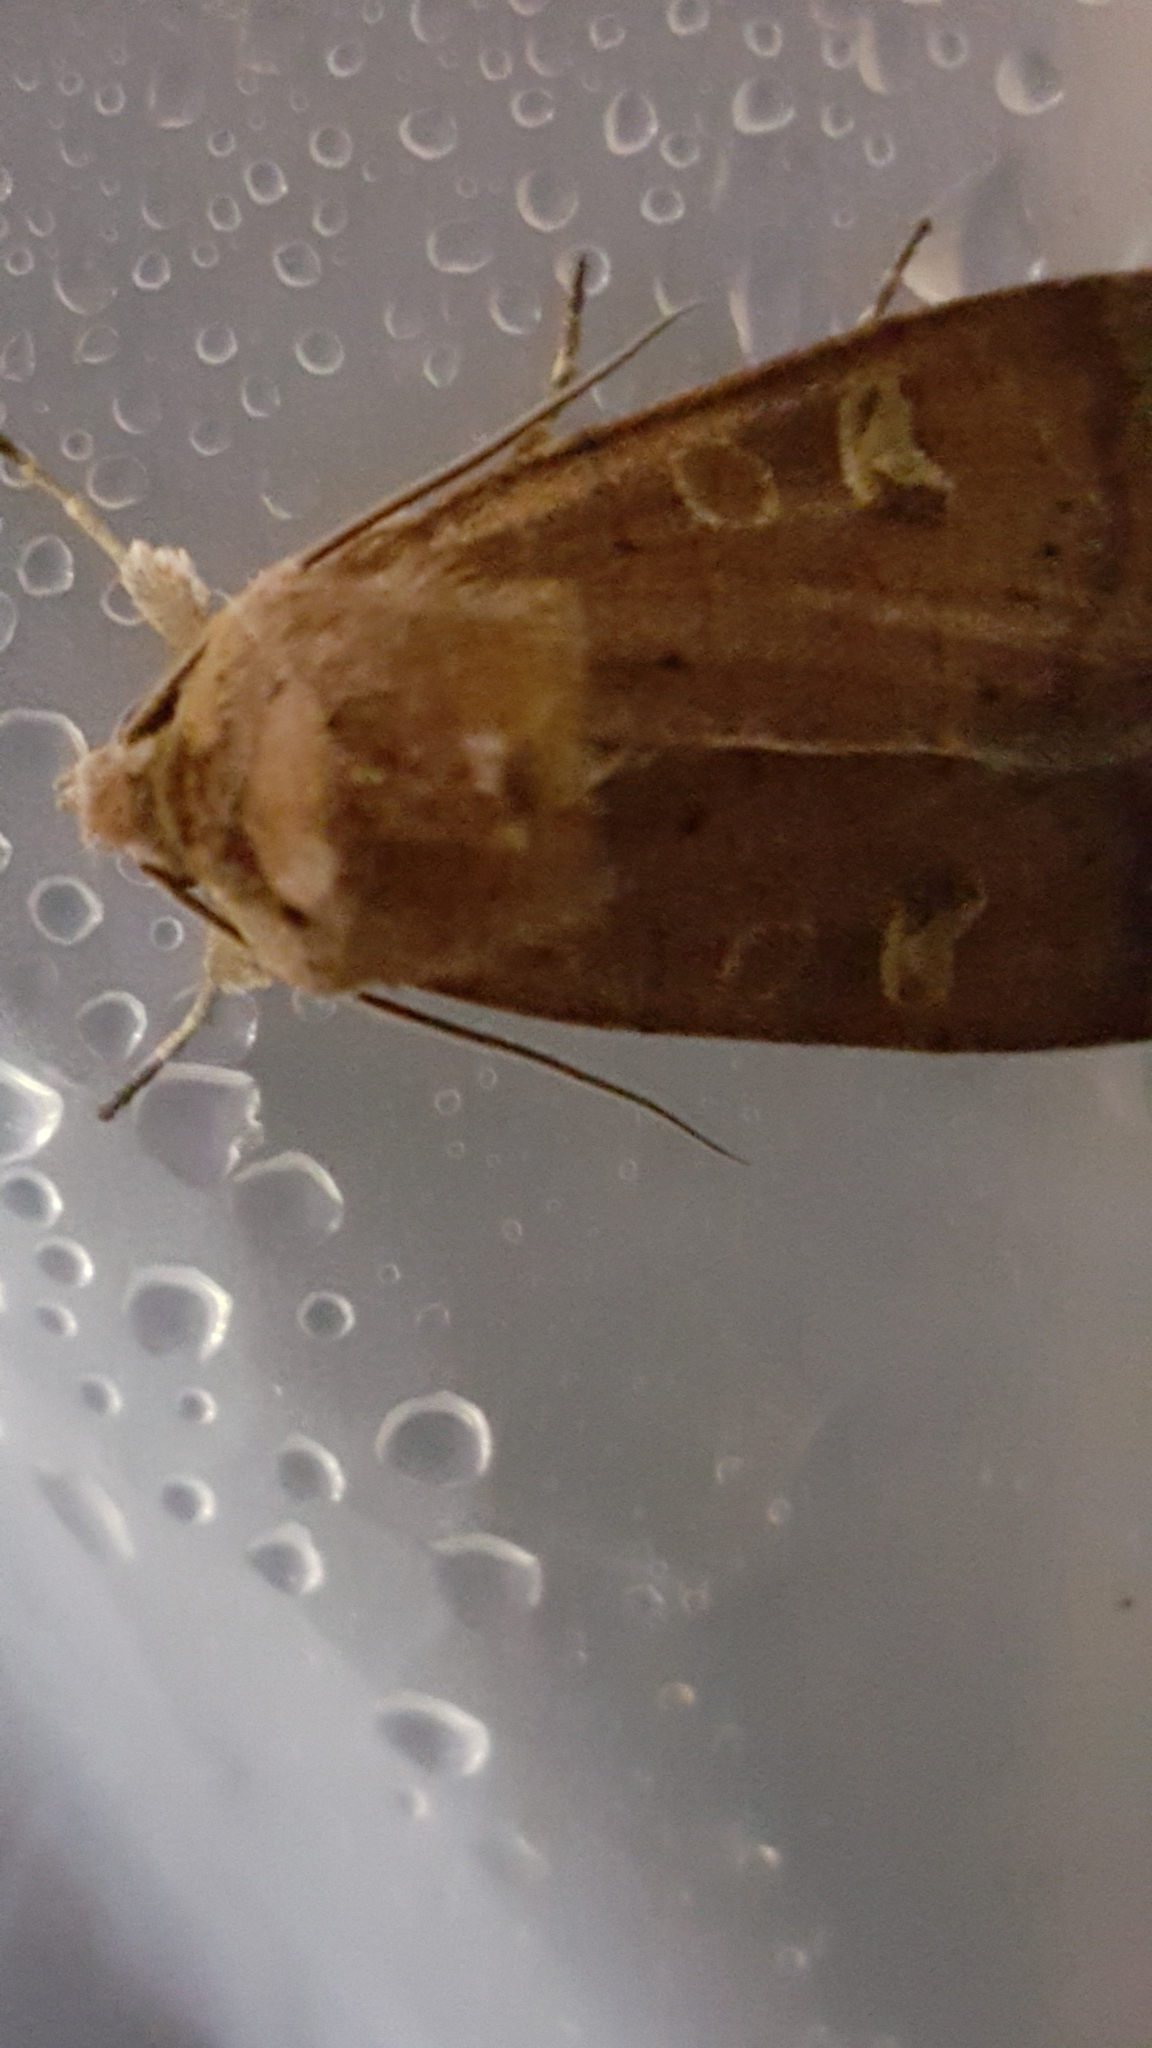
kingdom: Animalia
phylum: Arthropoda
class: Insecta
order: Lepidoptera
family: Noctuidae
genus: Xestia
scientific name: Xestia xanthographa
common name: Square-spot rustic
